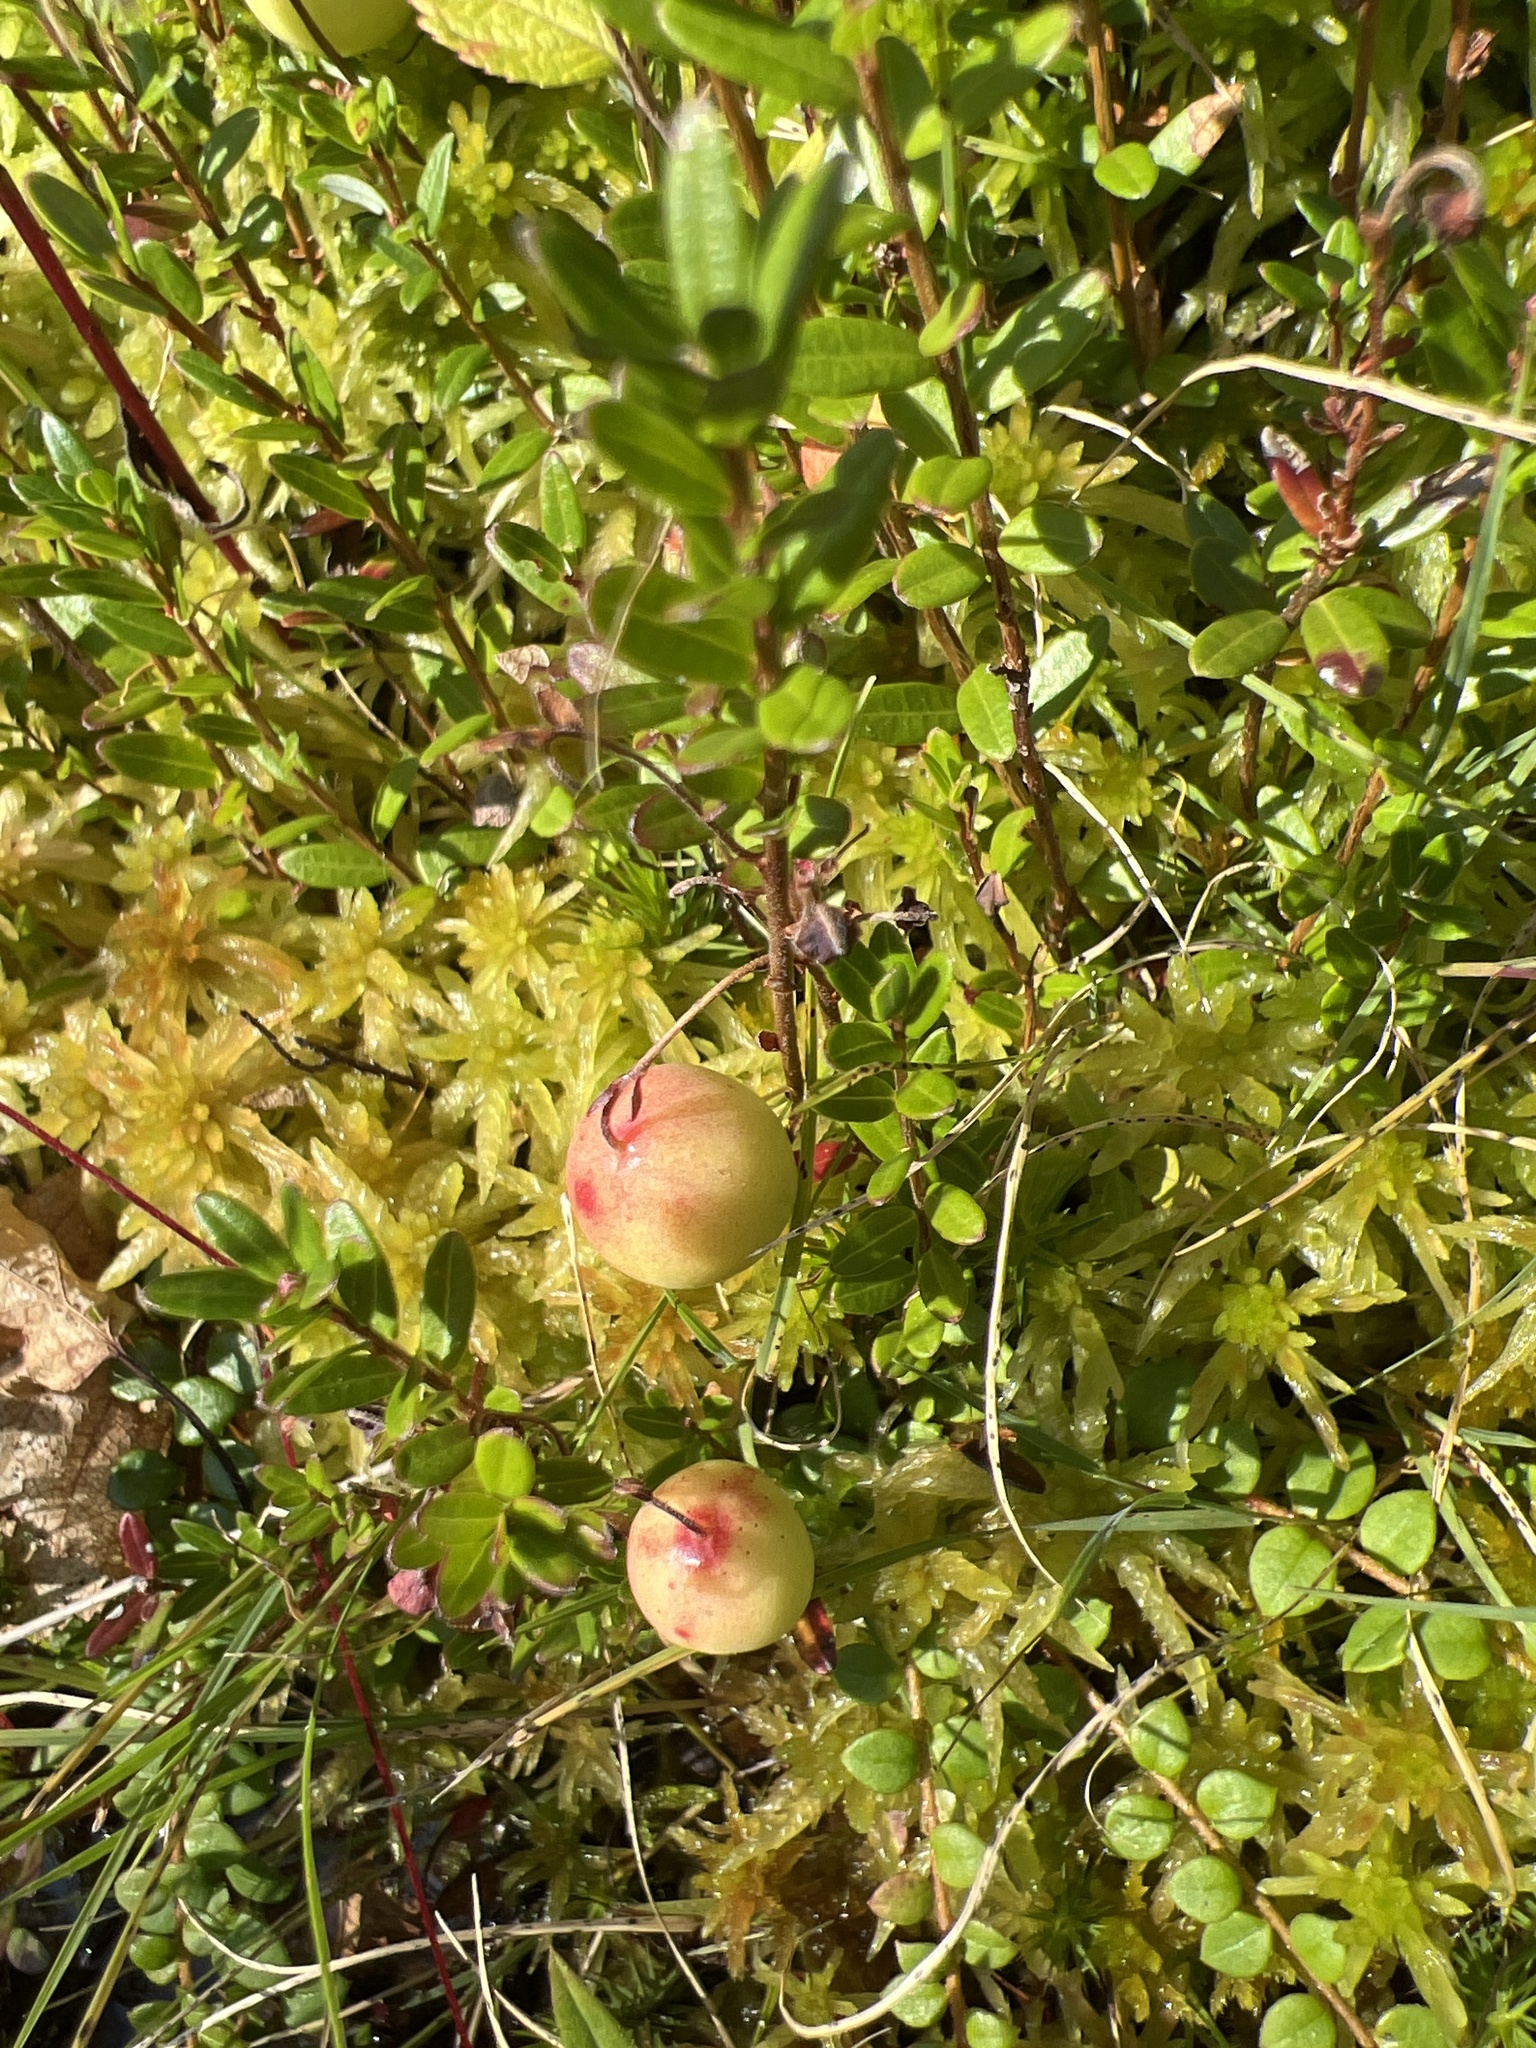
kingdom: Plantae
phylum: Tracheophyta
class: Magnoliopsida
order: Ericales
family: Ericaceae
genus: Vaccinium
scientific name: Vaccinium macrocarpon
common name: American cranberry
